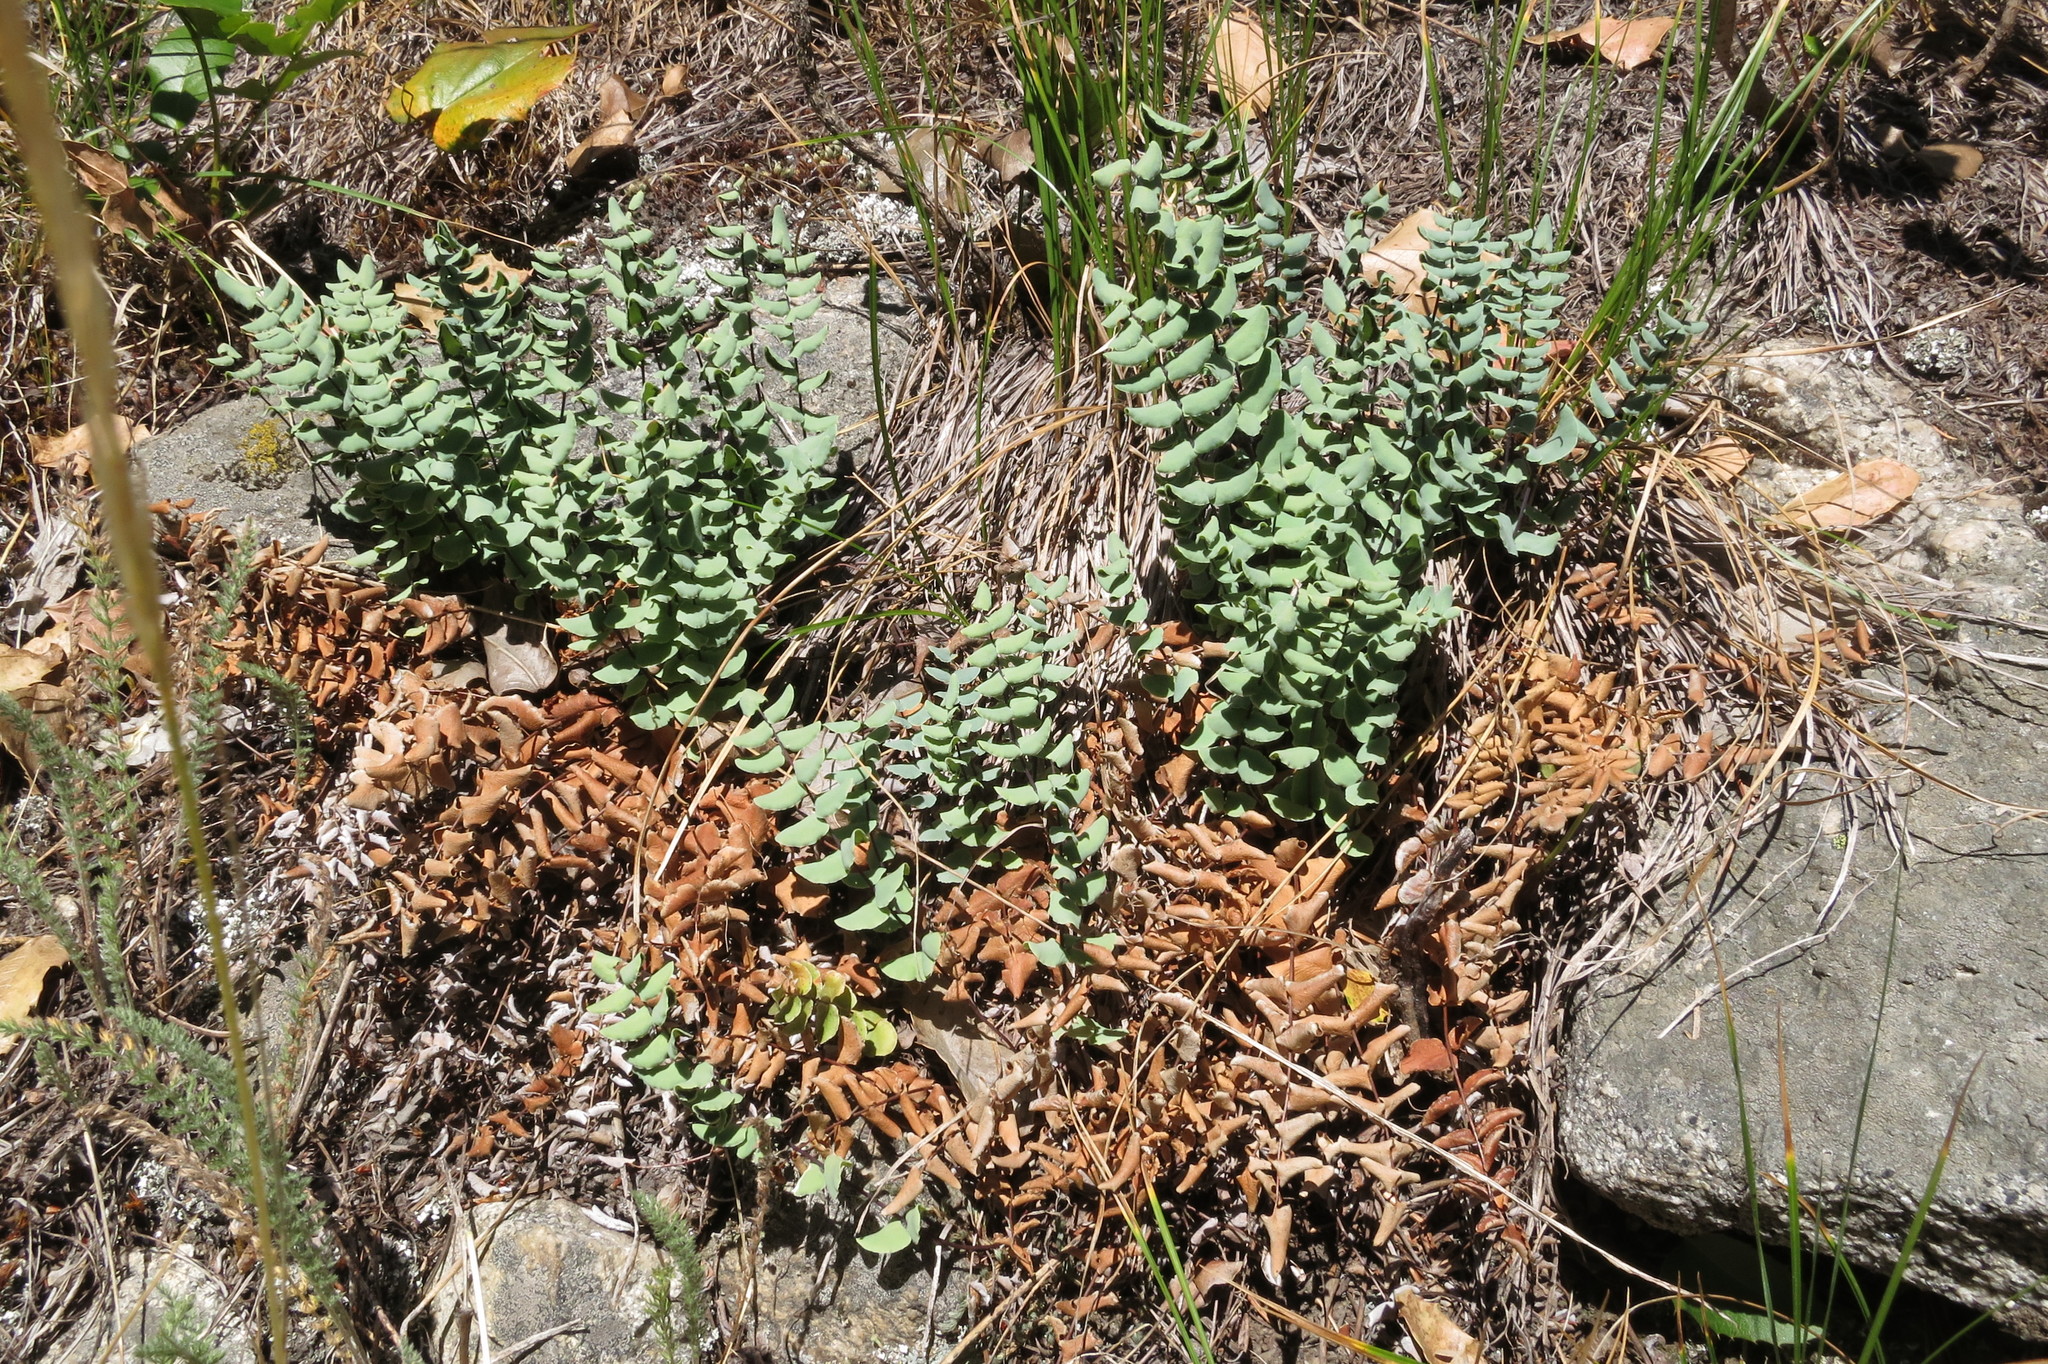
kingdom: Plantae
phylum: Tracheophyta
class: Polypodiopsida
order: Polypodiales
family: Pteridaceae
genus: Pellaea
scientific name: Pellaea bridgesii
